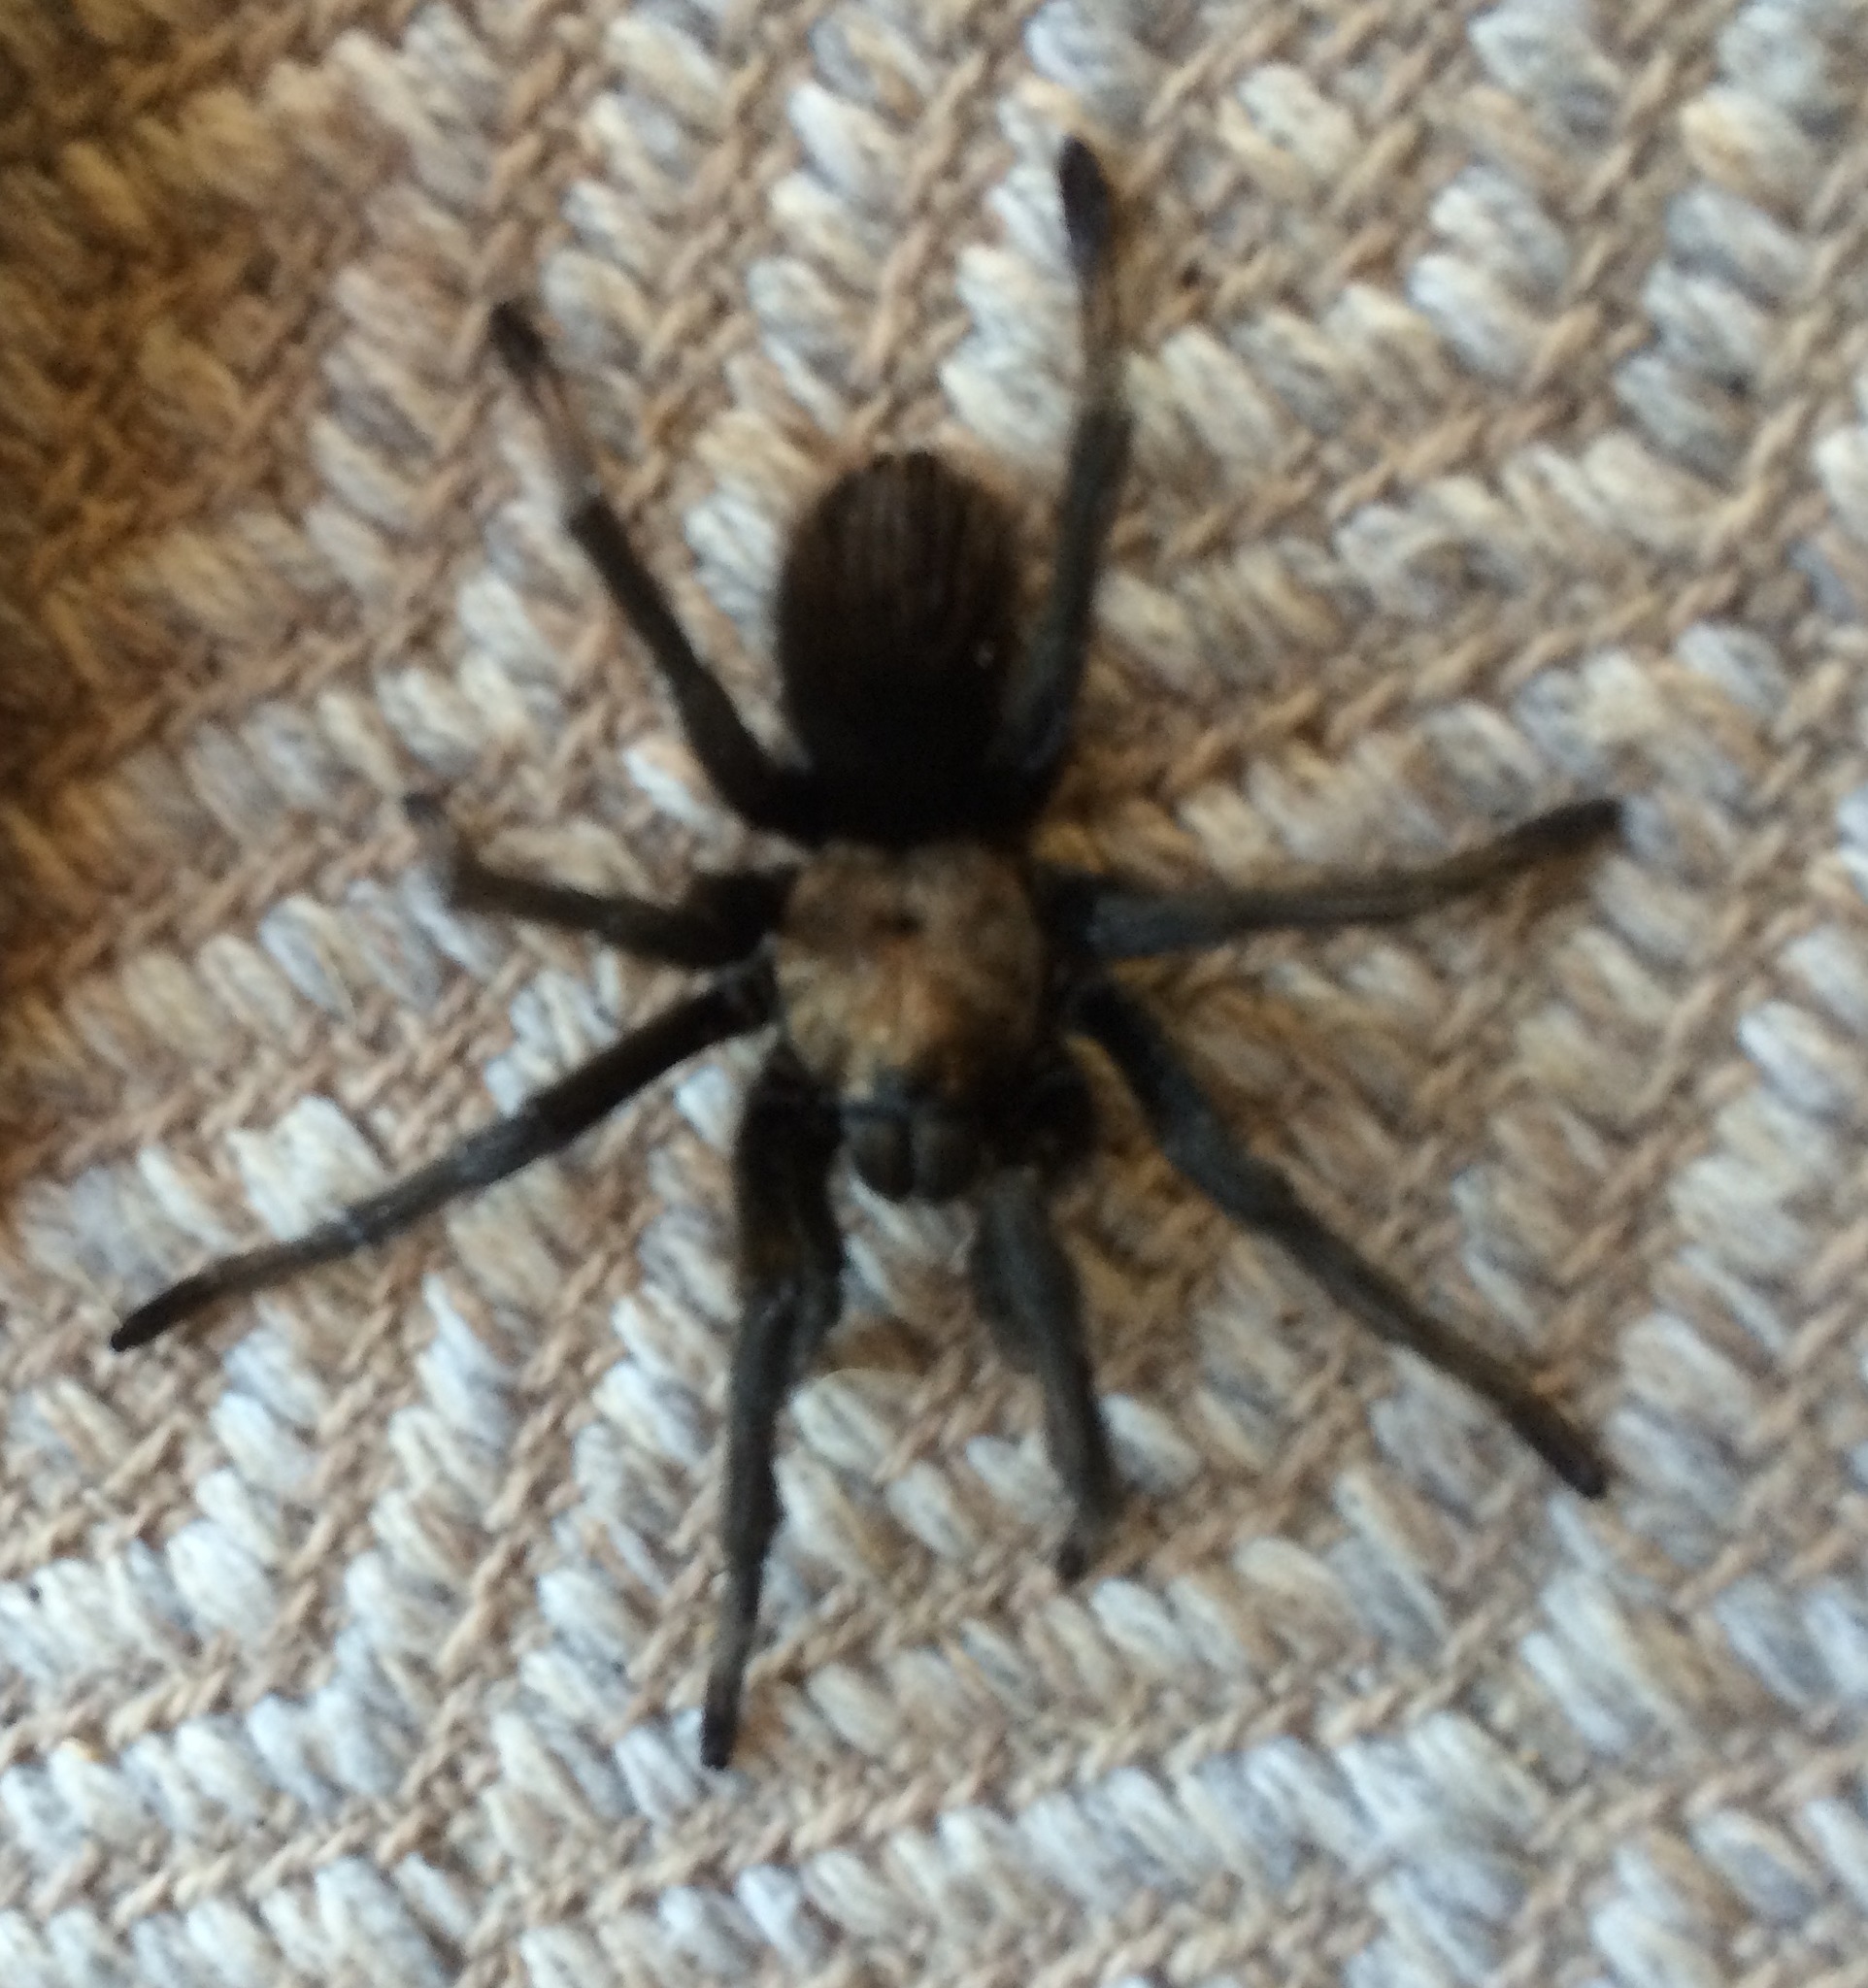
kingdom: Animalia
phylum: Arthropoda
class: Arachnida
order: Araneae
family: Theraphosidae
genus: Aphonopelma
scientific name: Aphonopelma eutylenum
